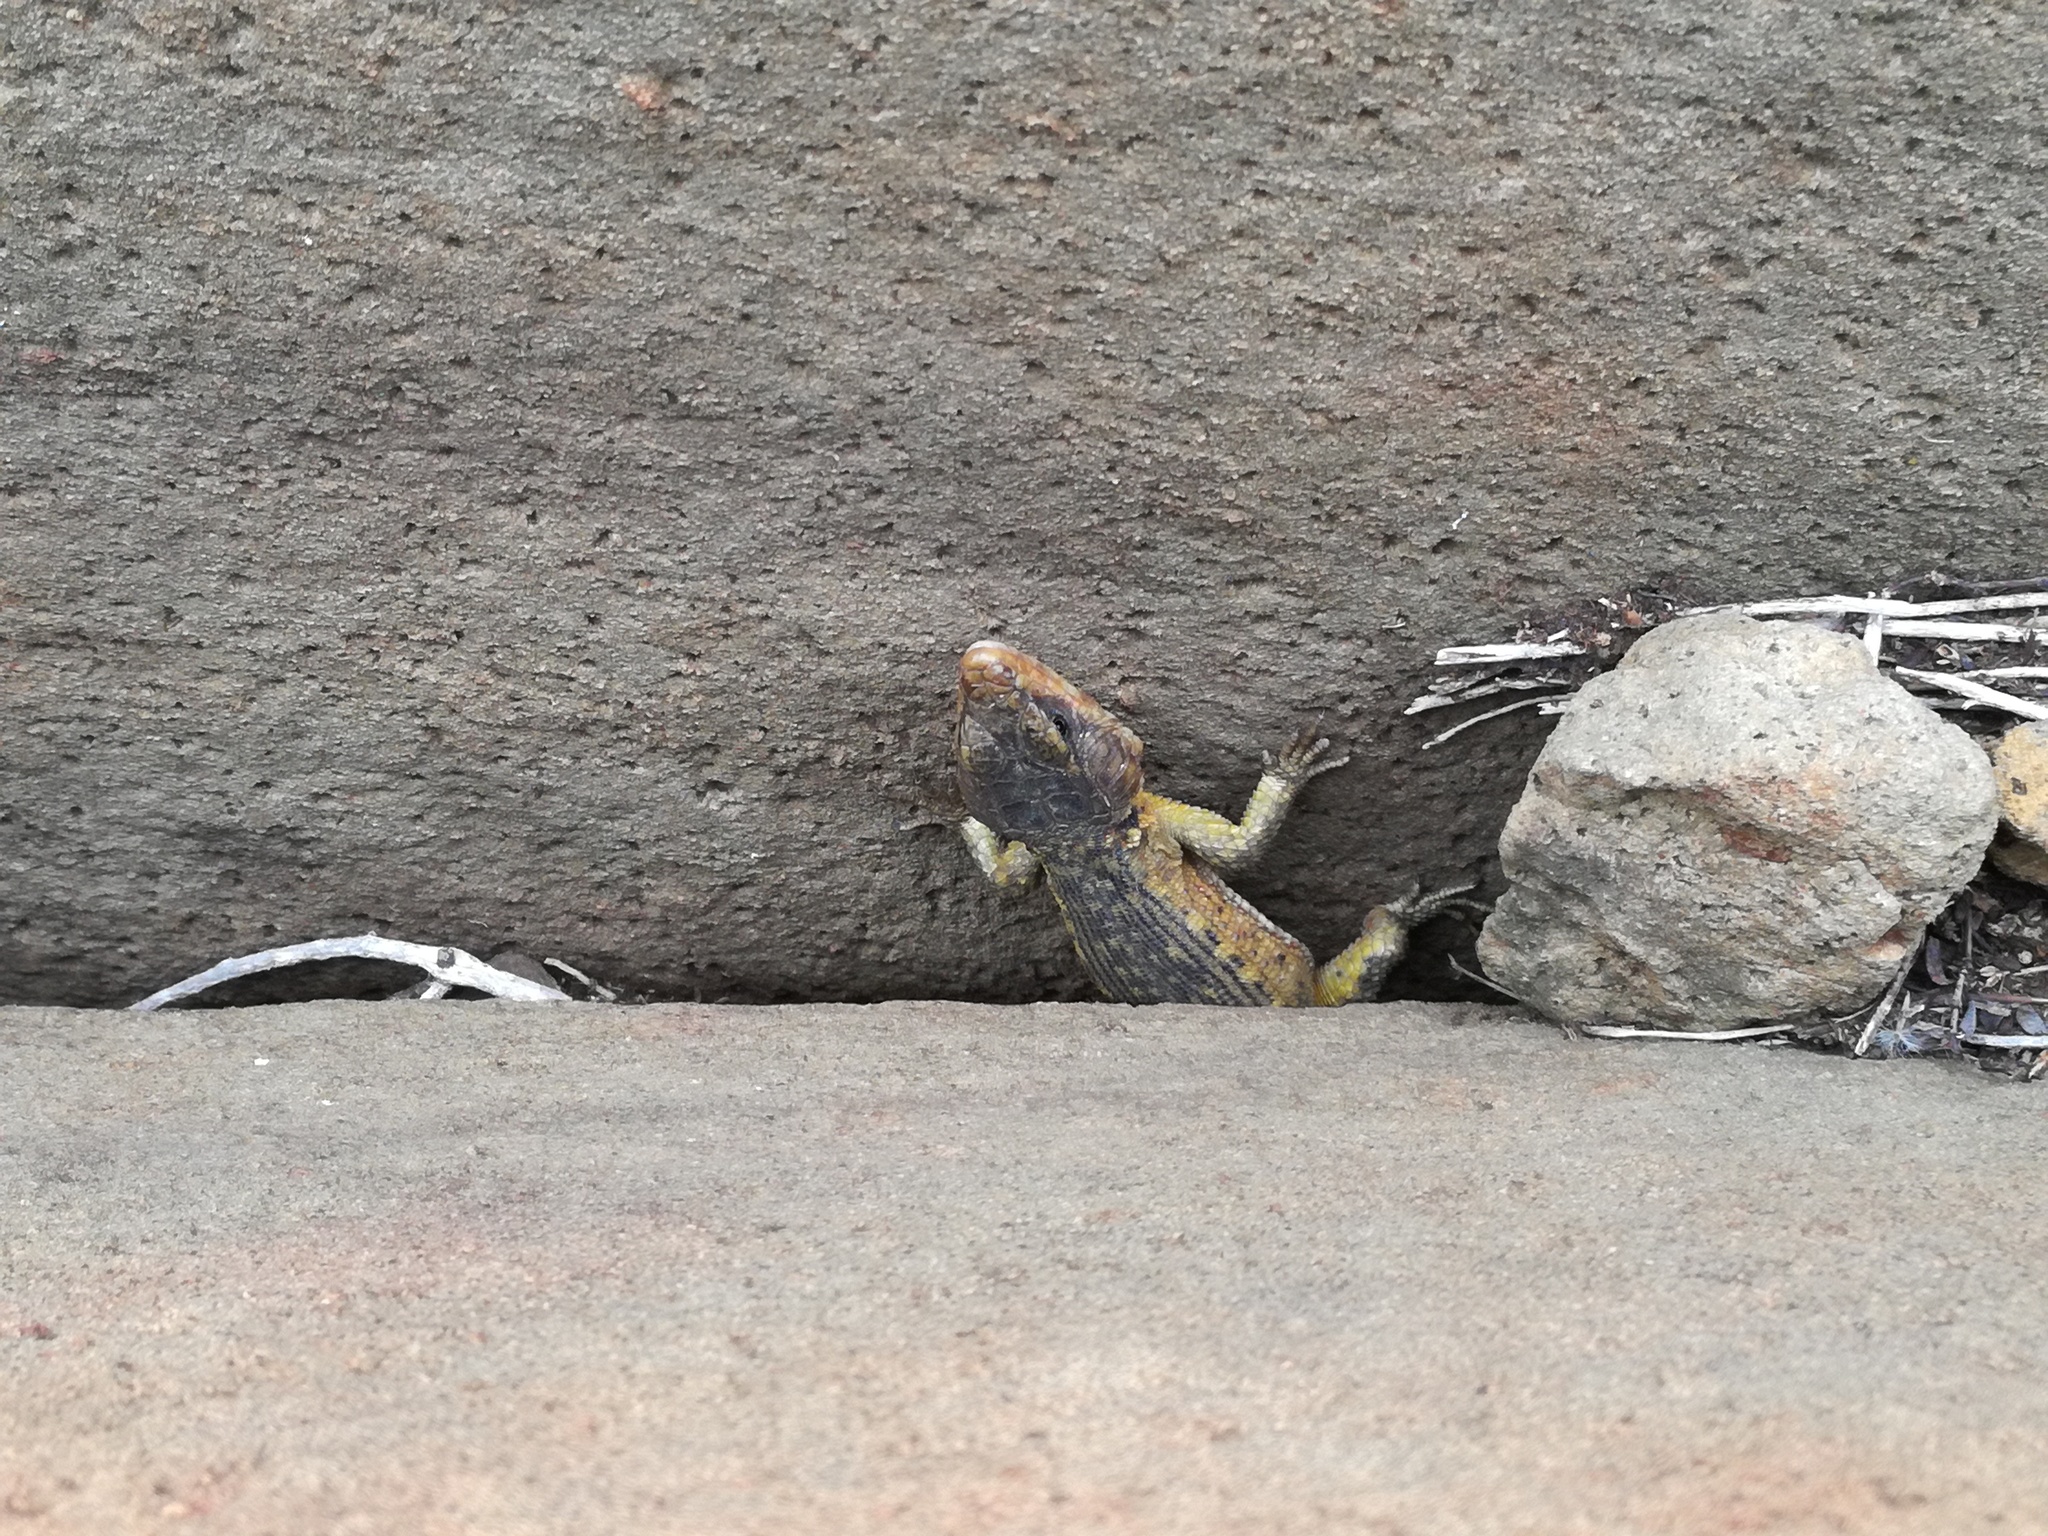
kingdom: Animalia
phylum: Chordata
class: Squamata
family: Cordylidae
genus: Pseudocordylus
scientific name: Pseudocordylus melanotus
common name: Highveld crag lizard
